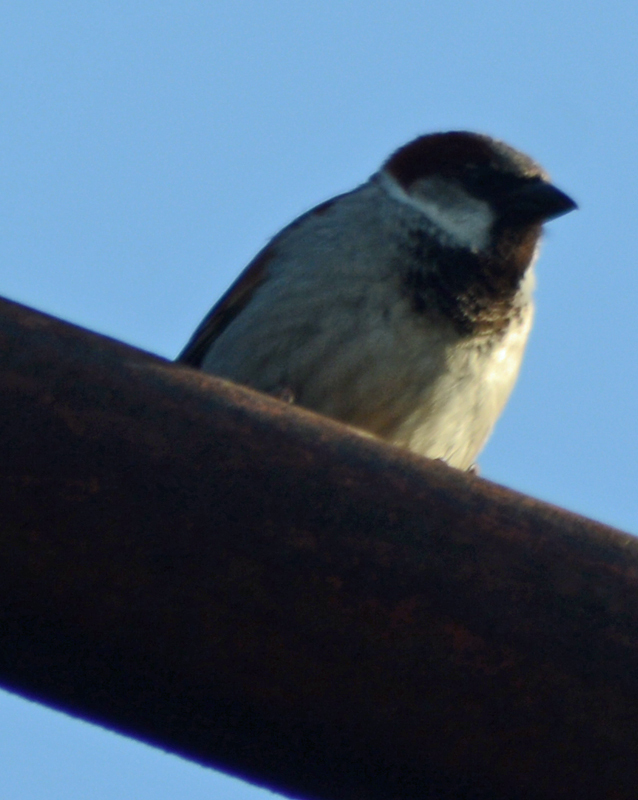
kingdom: Animalia
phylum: Chordata
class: Aves
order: Passeriformes
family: Passeridae
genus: Passer
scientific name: Passer domesticus
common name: House sparrow
